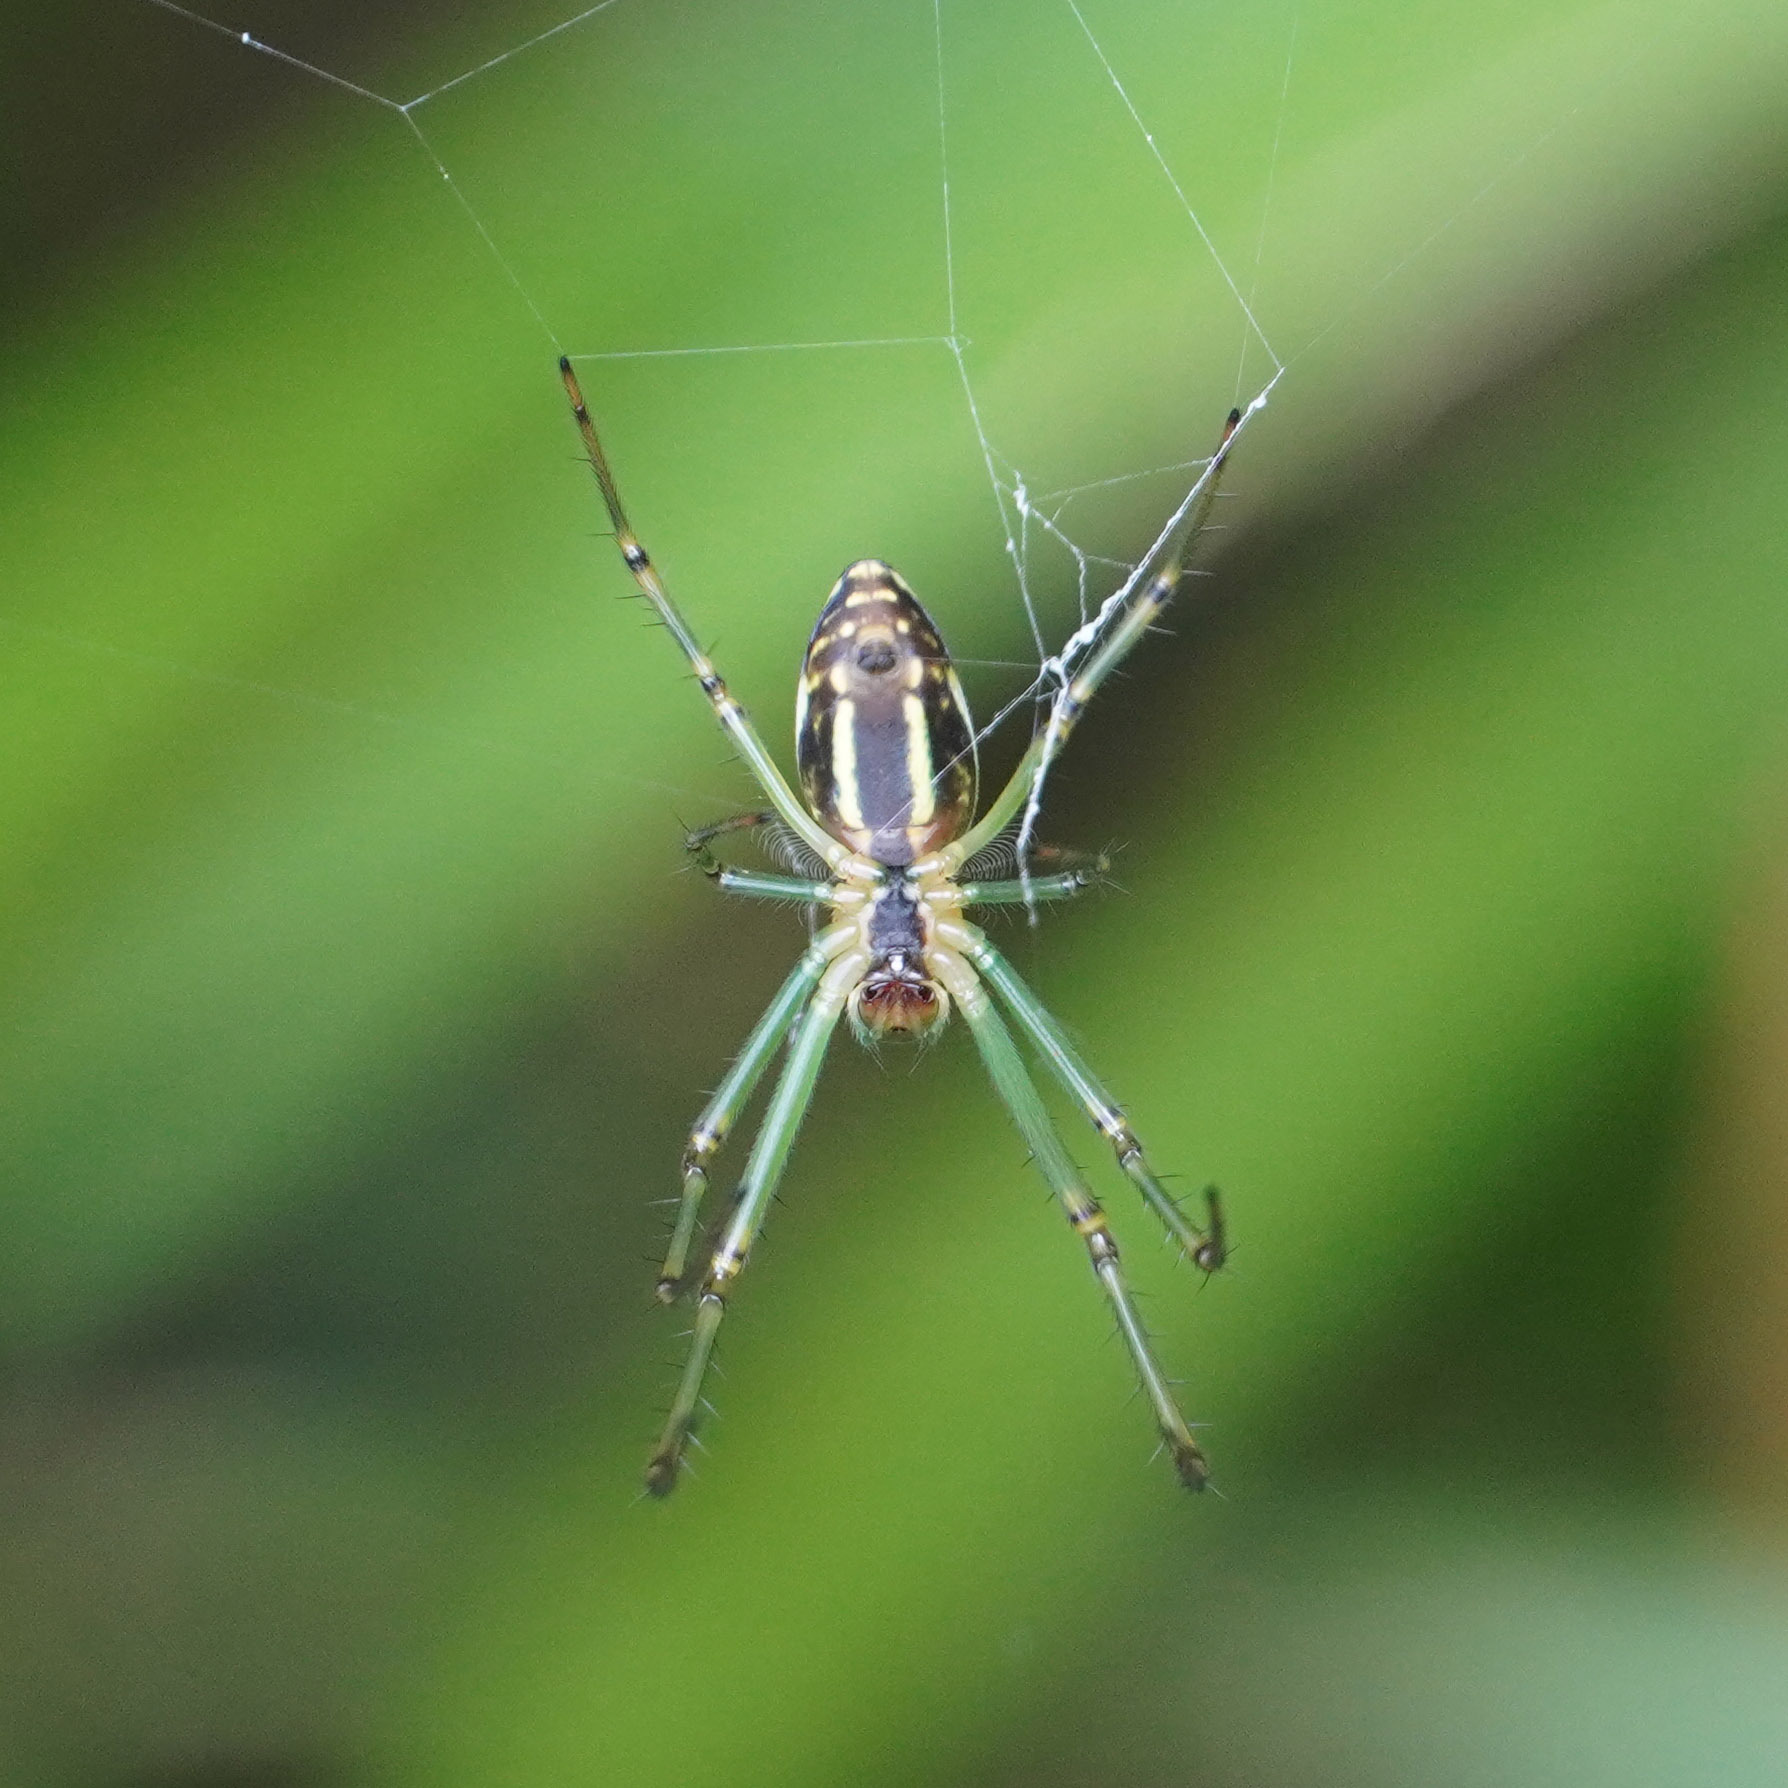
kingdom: Animalia
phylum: Arthropoda
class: Arachnida
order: Araneae
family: Tetragnathidae
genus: Leucauge
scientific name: Leucauge celebesiana
